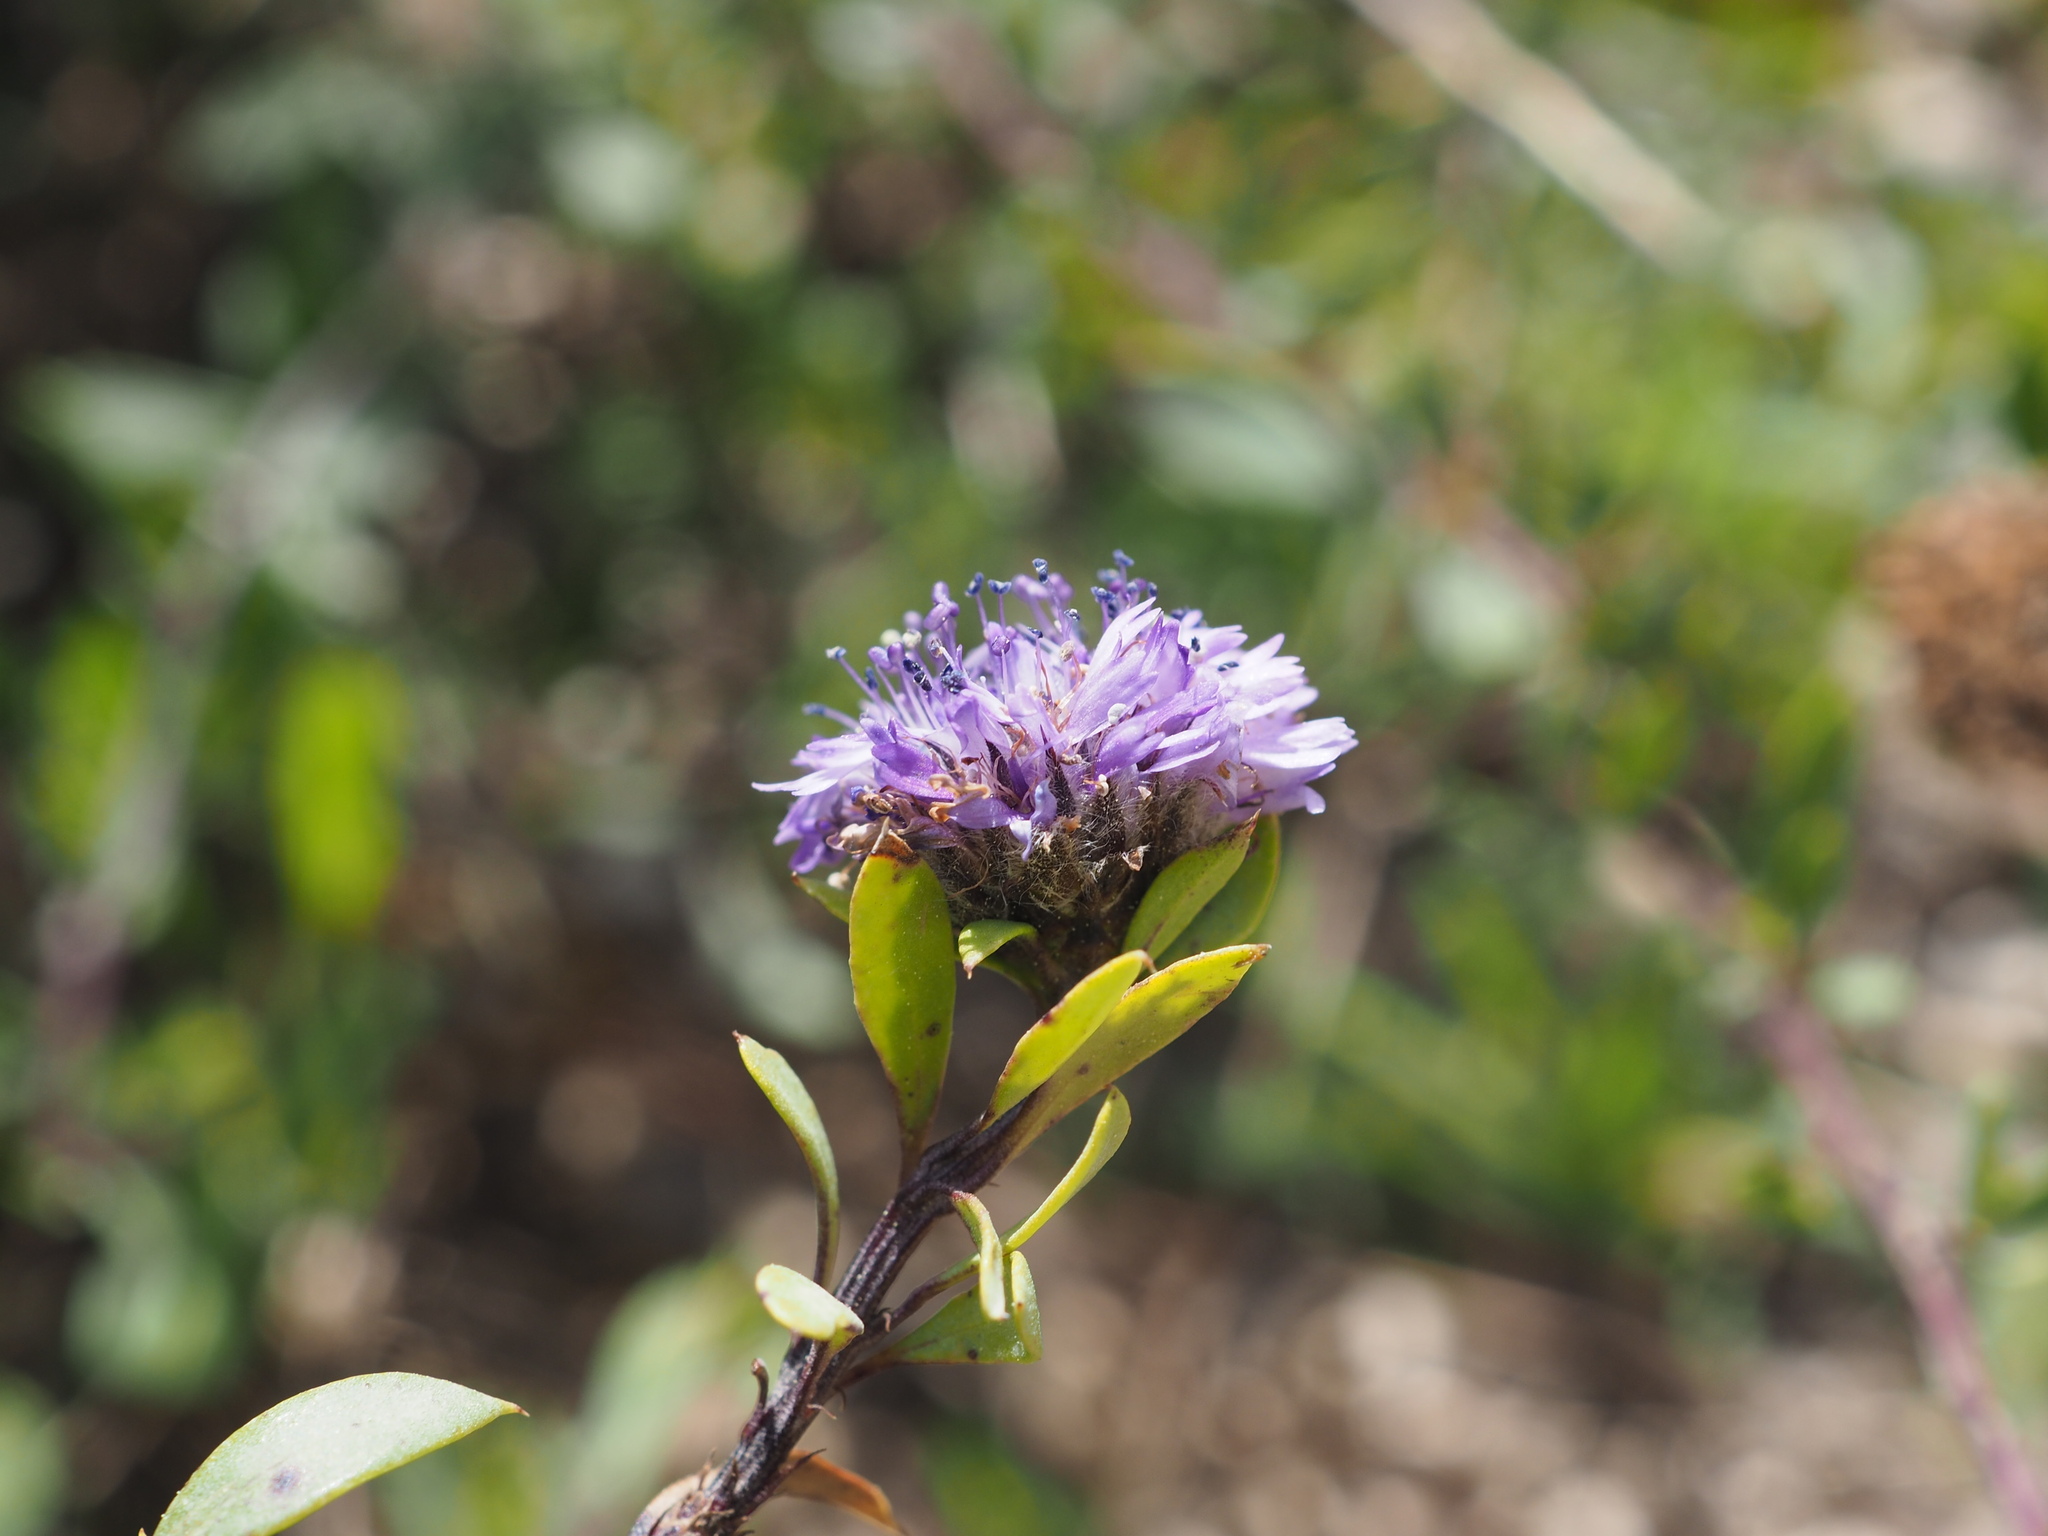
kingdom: Plantae
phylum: Tracheophyta
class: Magnoliopsida
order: Lamiales
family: Plantaginaceae
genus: Globularia
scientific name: Globularia alypum
